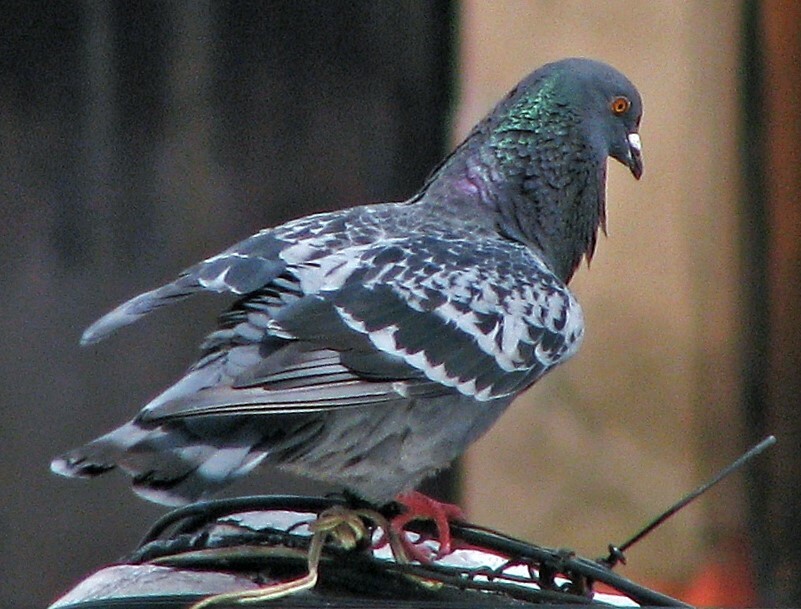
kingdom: Animalia
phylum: Chordata
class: Aves
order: Columbiformes
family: Columbidae
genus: Columba
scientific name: Columba livia
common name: Rock pigeon
